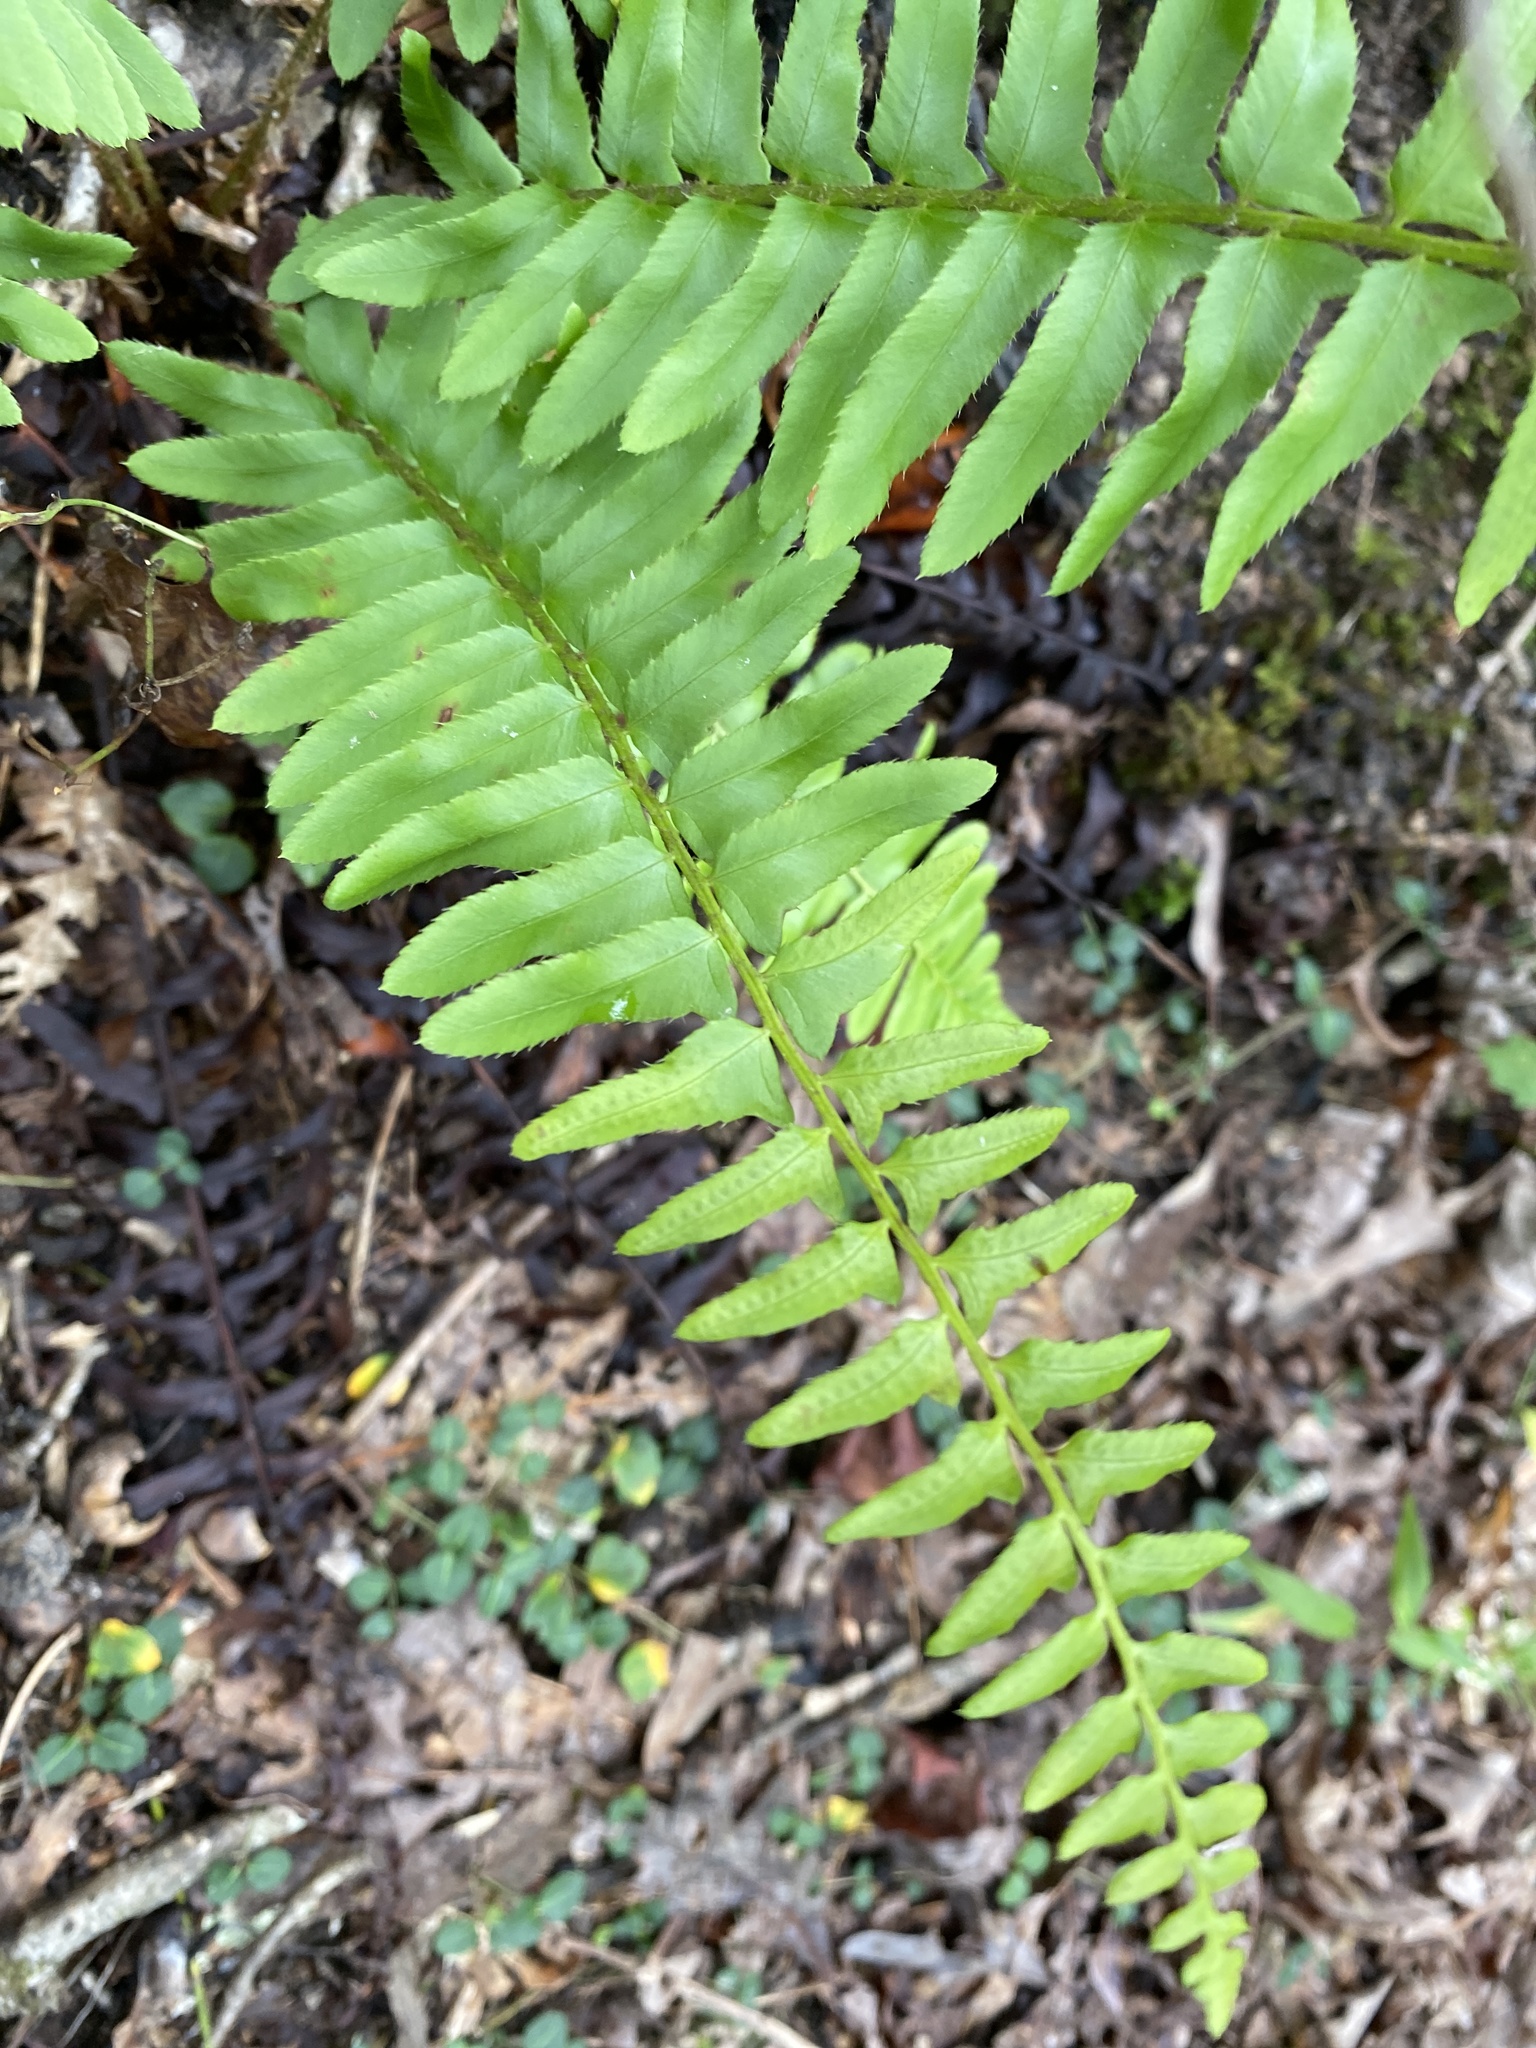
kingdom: Plantae
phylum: Tracheophyta
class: Polypodiopsida
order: Polypodiales
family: Dryopteridaceae
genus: Polystichum
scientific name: Polystichum acrostichoides
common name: Christmas fern
